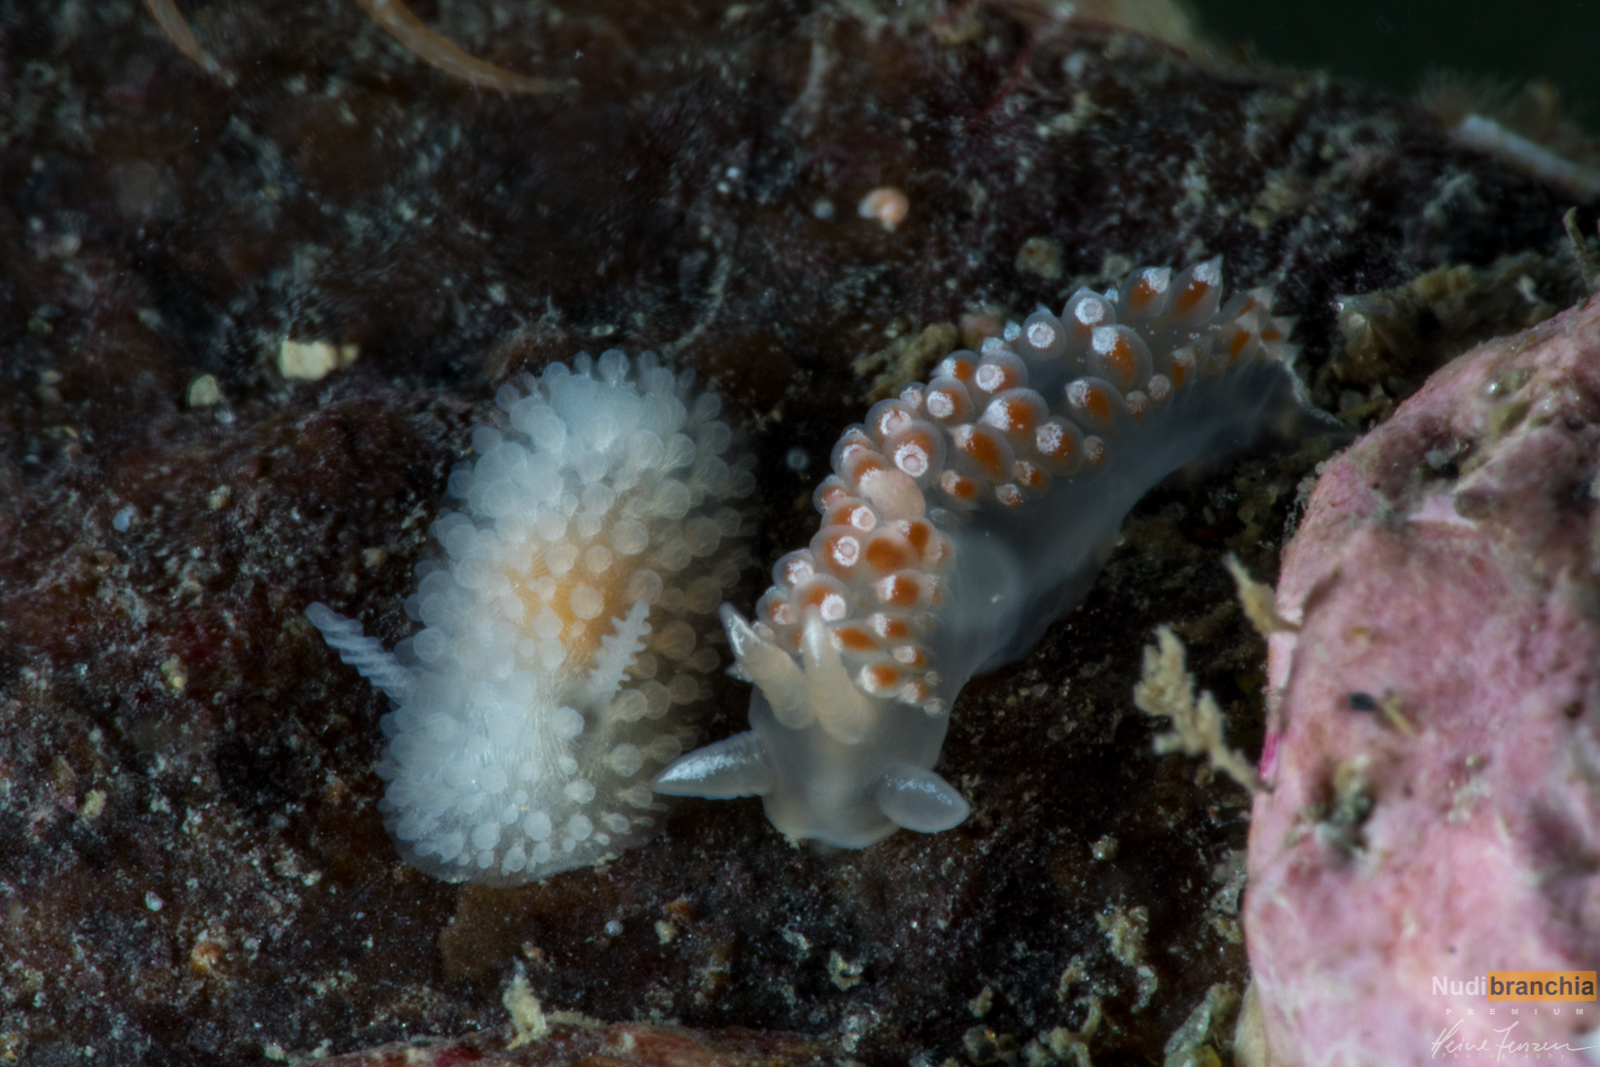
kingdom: Animalia
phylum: Mollusca
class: Gastropoda
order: Nudibranchia
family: Onchidorididae
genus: Onchidoris
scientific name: Onchidoris muricata
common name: Rough doris
